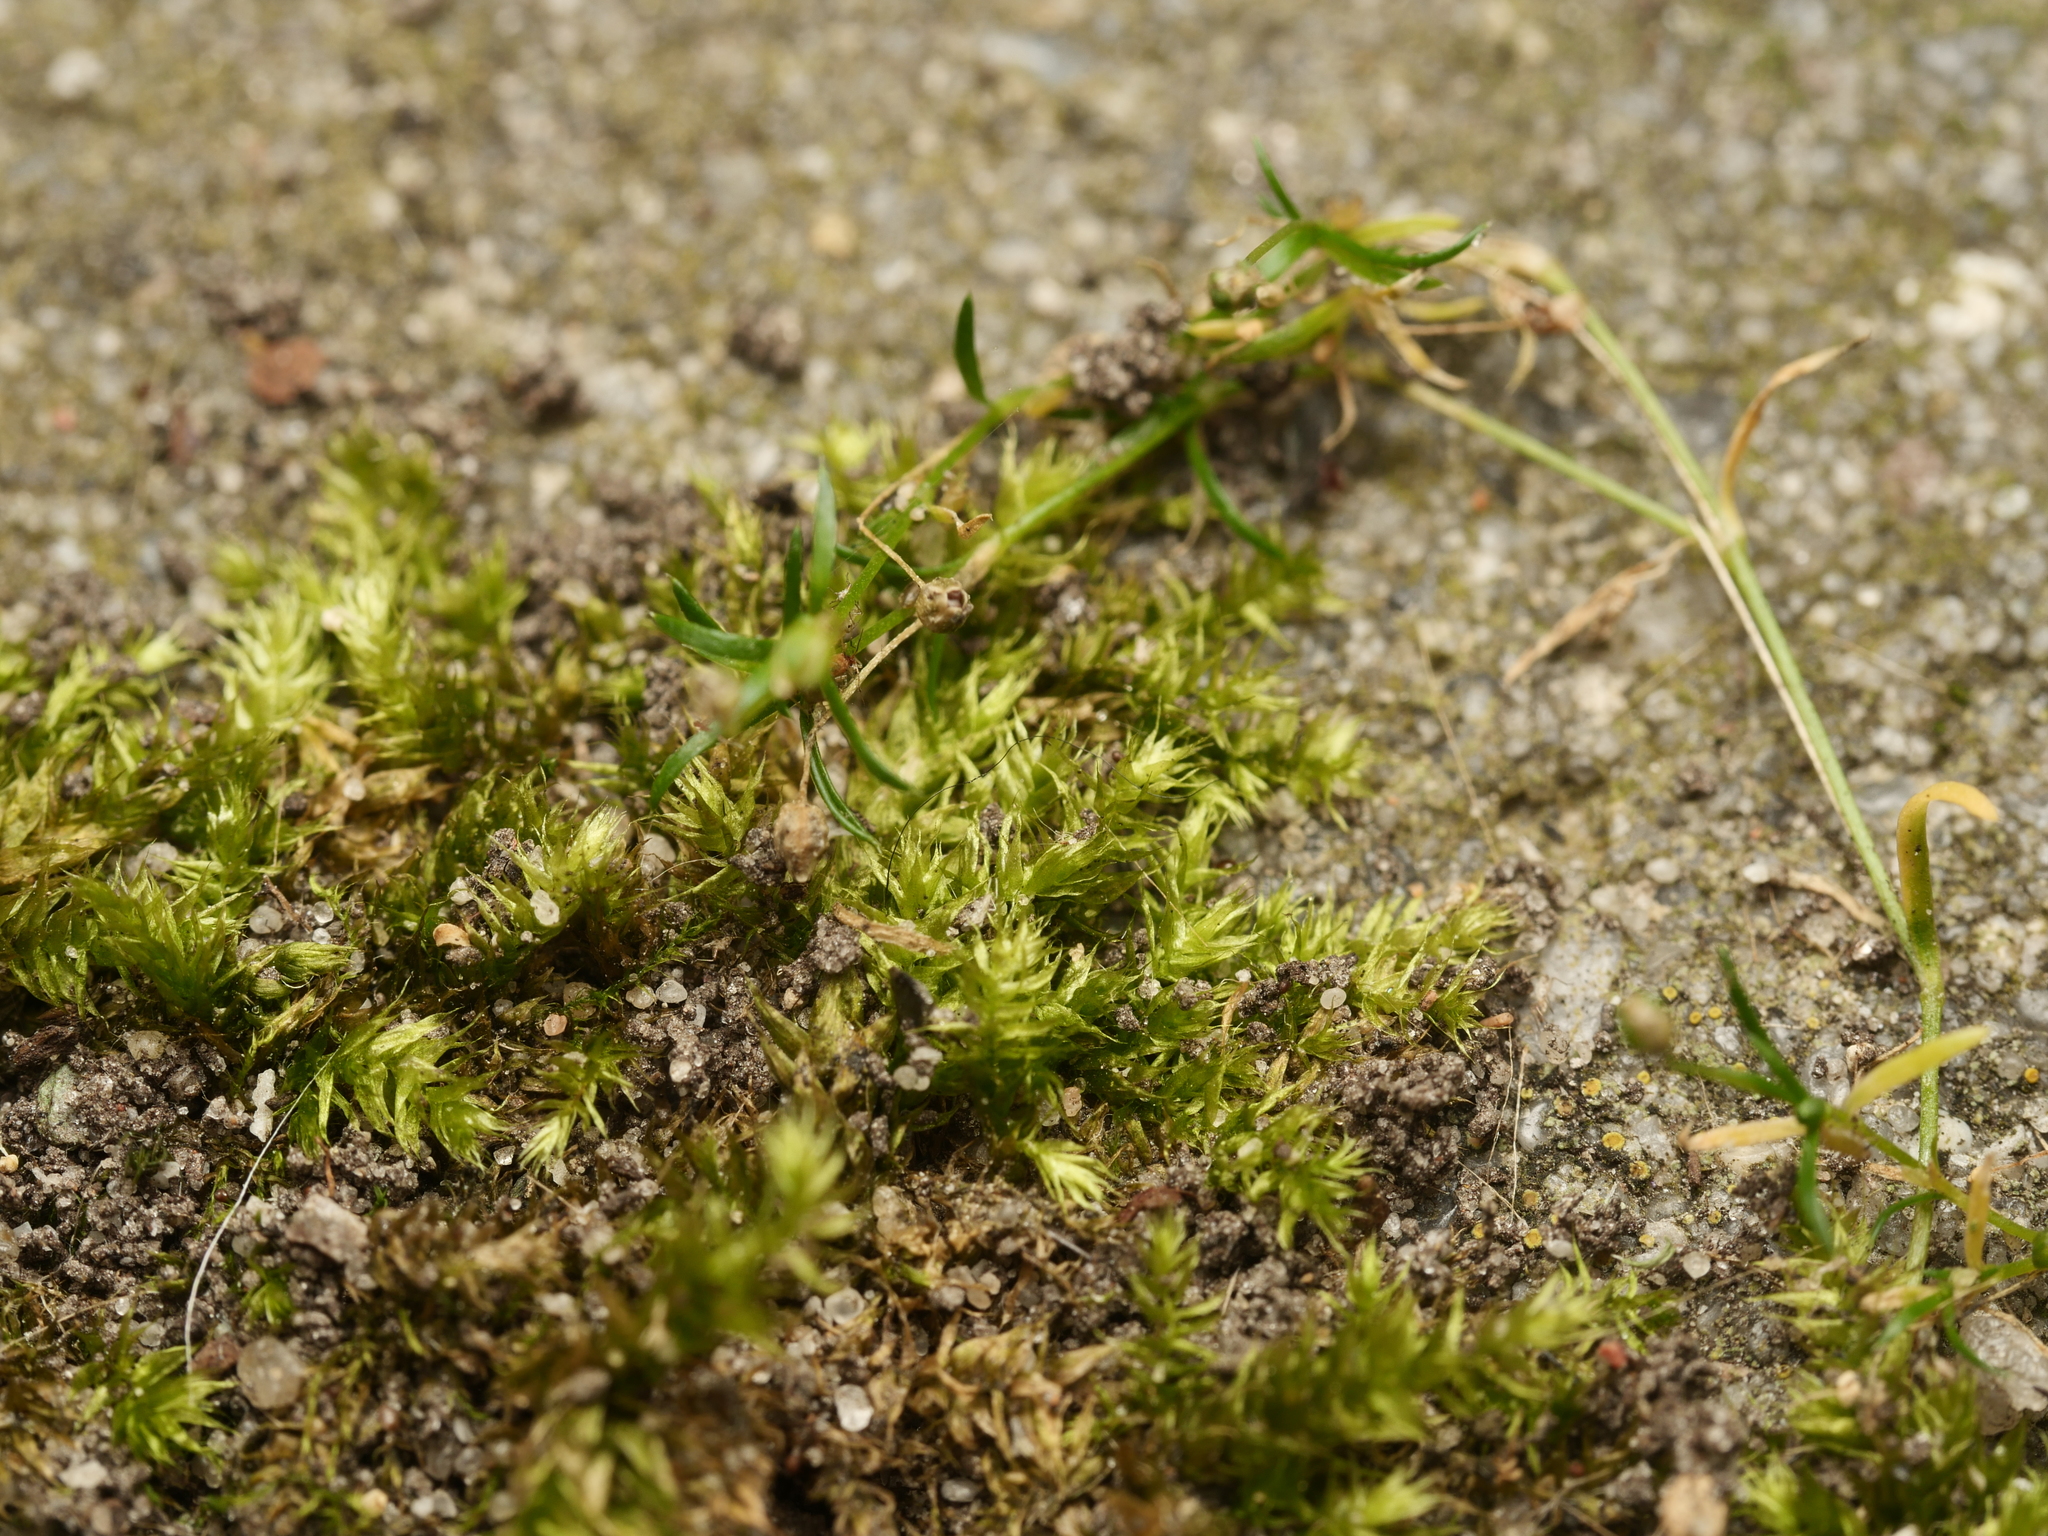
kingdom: Plantae
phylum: Bryophyta
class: Bryopsida
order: Hypnales
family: Brachytheciaceae
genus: Brachythecium
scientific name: Brachythecium rutabulum
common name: Rough-stalked feather-moss
